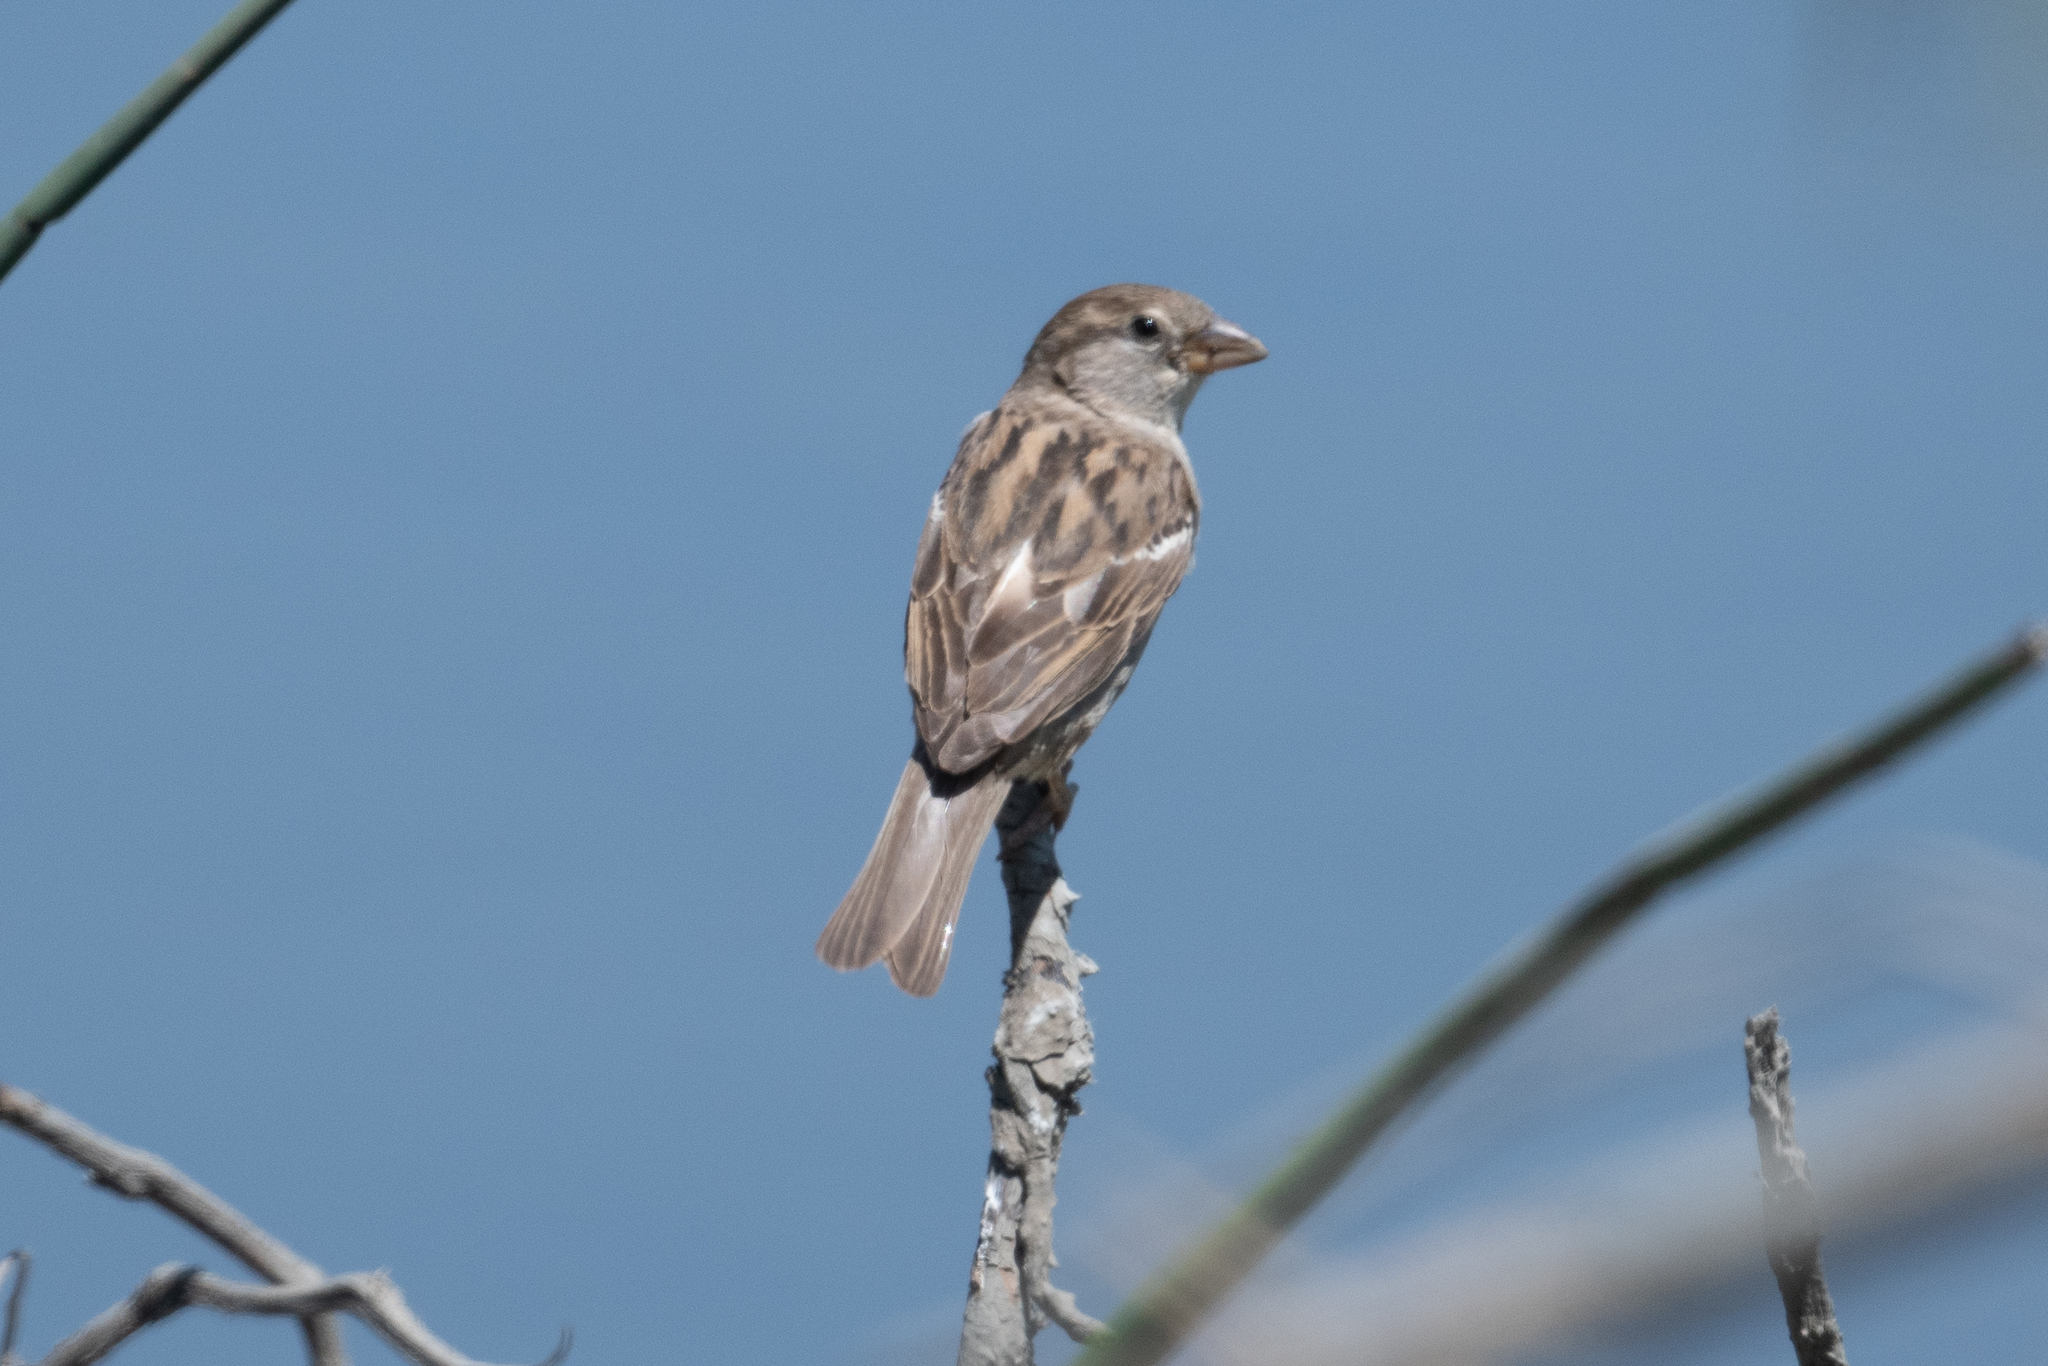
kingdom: Animalia
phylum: Chordata
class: Aves
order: Passeriformes
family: Passeridae
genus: Passer
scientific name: Passer domesticus
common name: House sparrow
